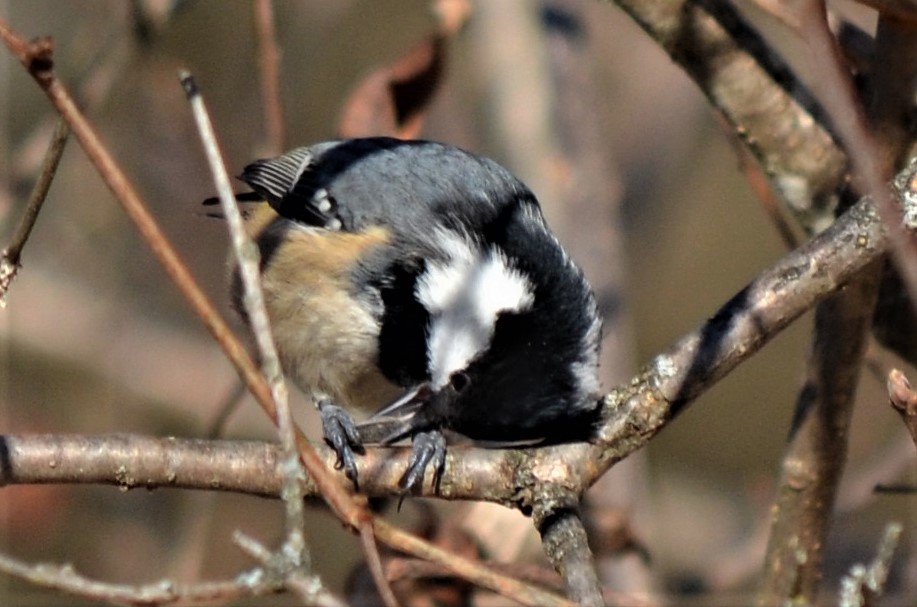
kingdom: Animalia
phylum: Chordata
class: Aves
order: Passeriformes
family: Paridae
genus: Periparus
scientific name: Periparus ater
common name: Coal tit
